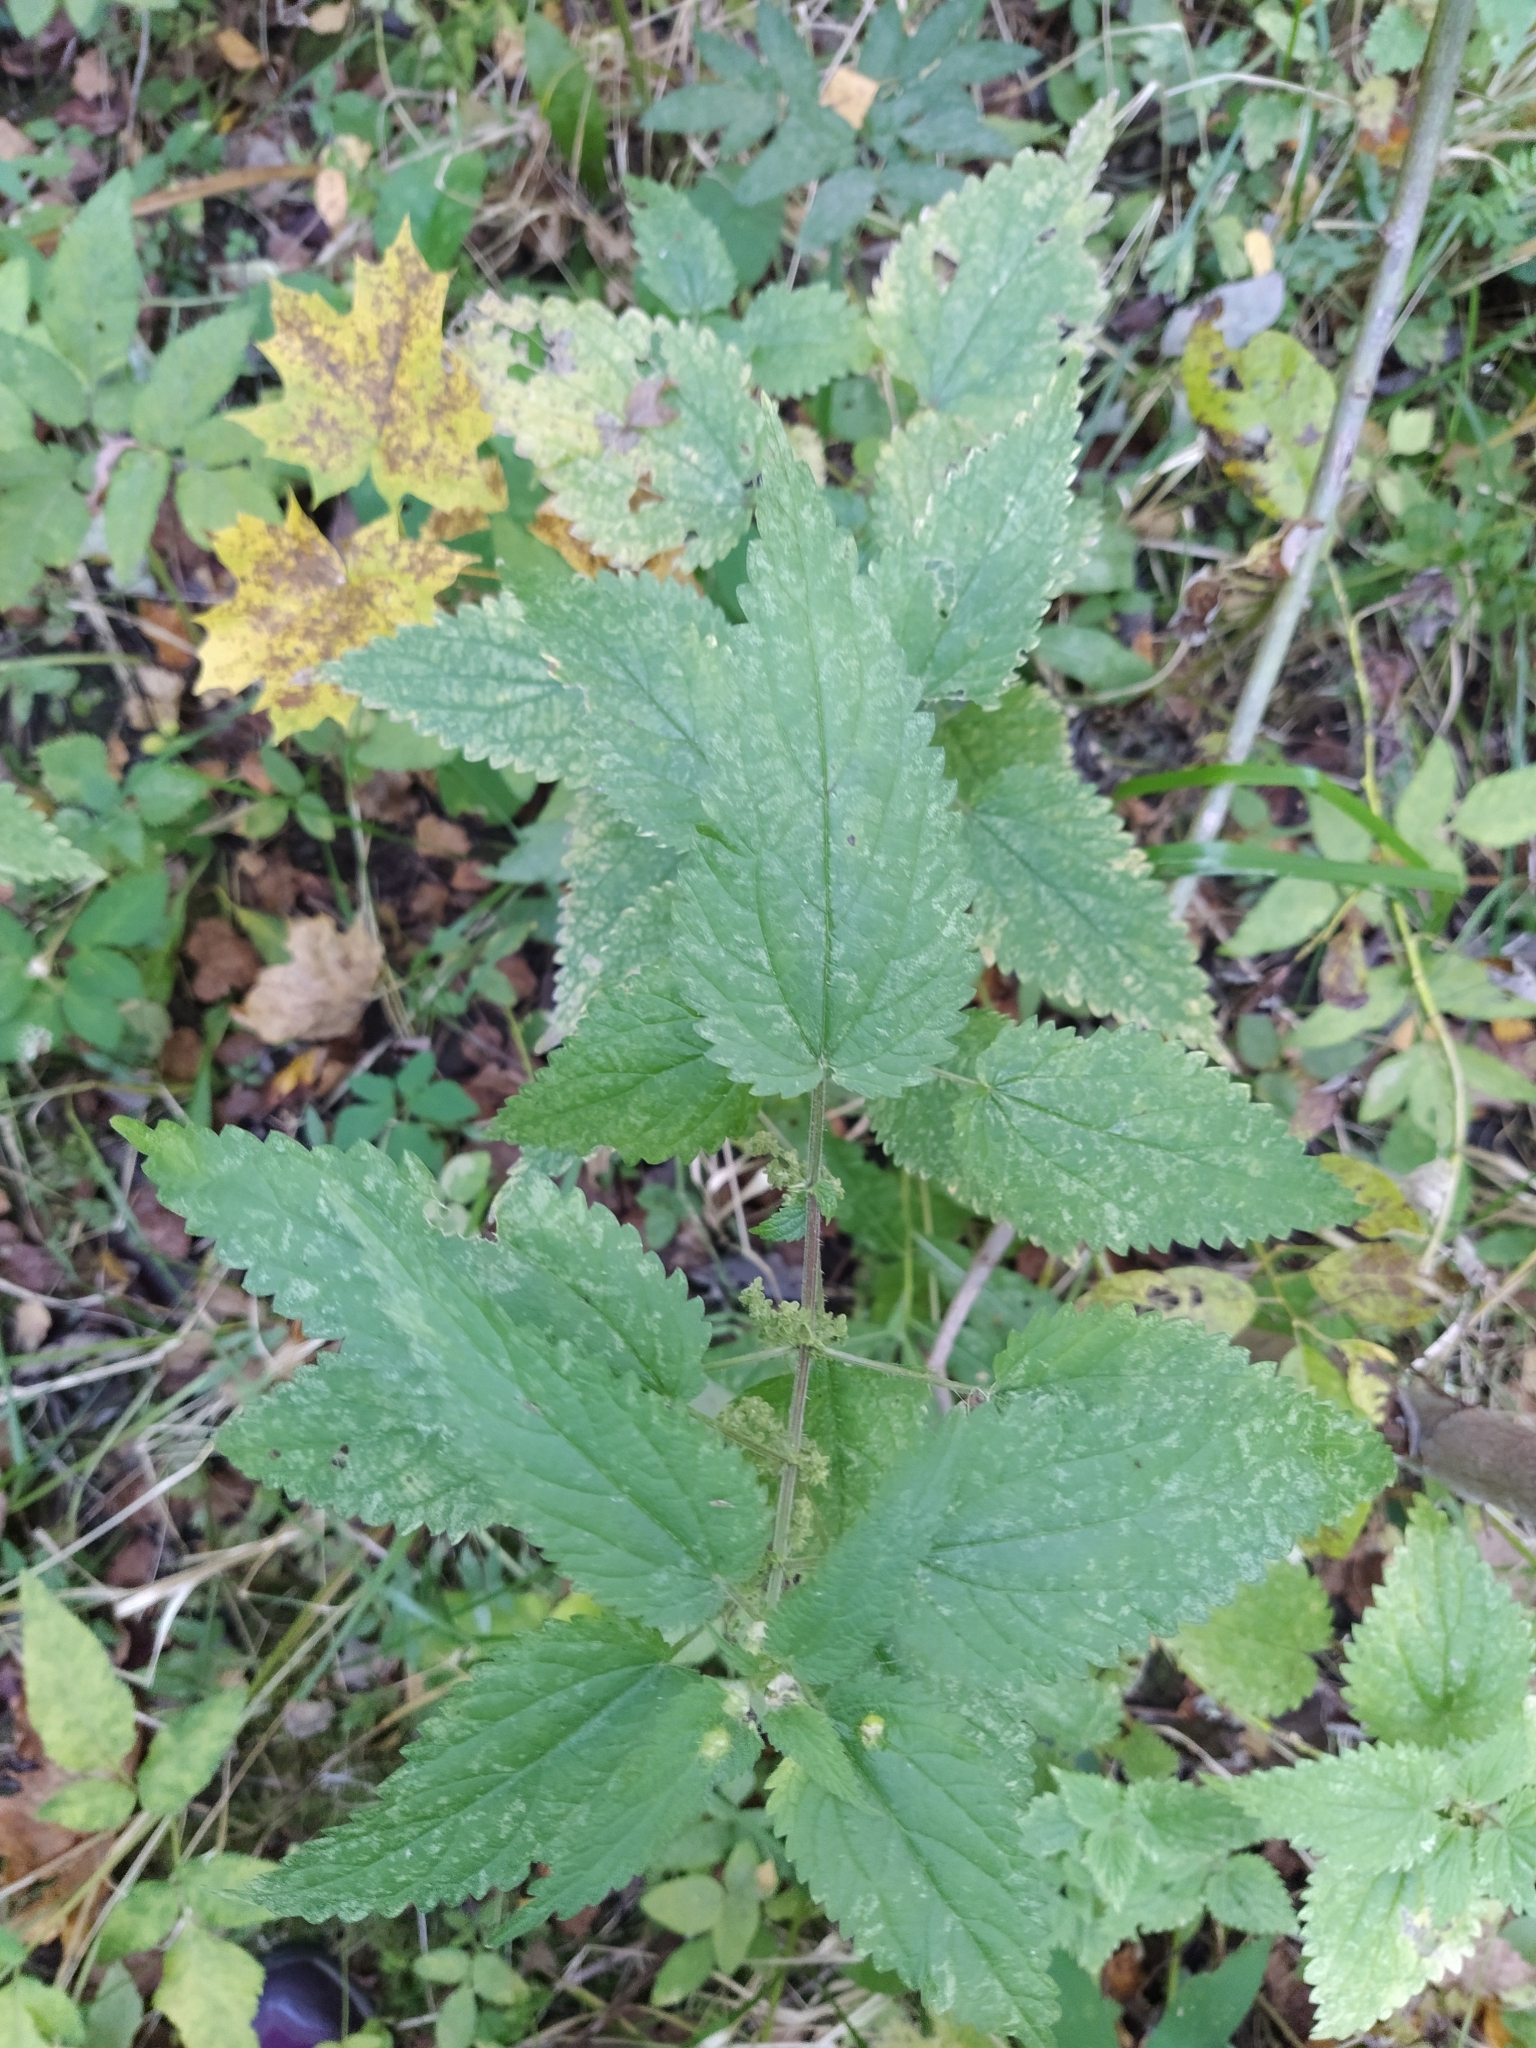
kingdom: Plantae
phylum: Tracheophyta
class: Magnoliopsida
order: Rosales
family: Urticaceae
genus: Urtica
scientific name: Urtica dioica
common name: Common nettle
